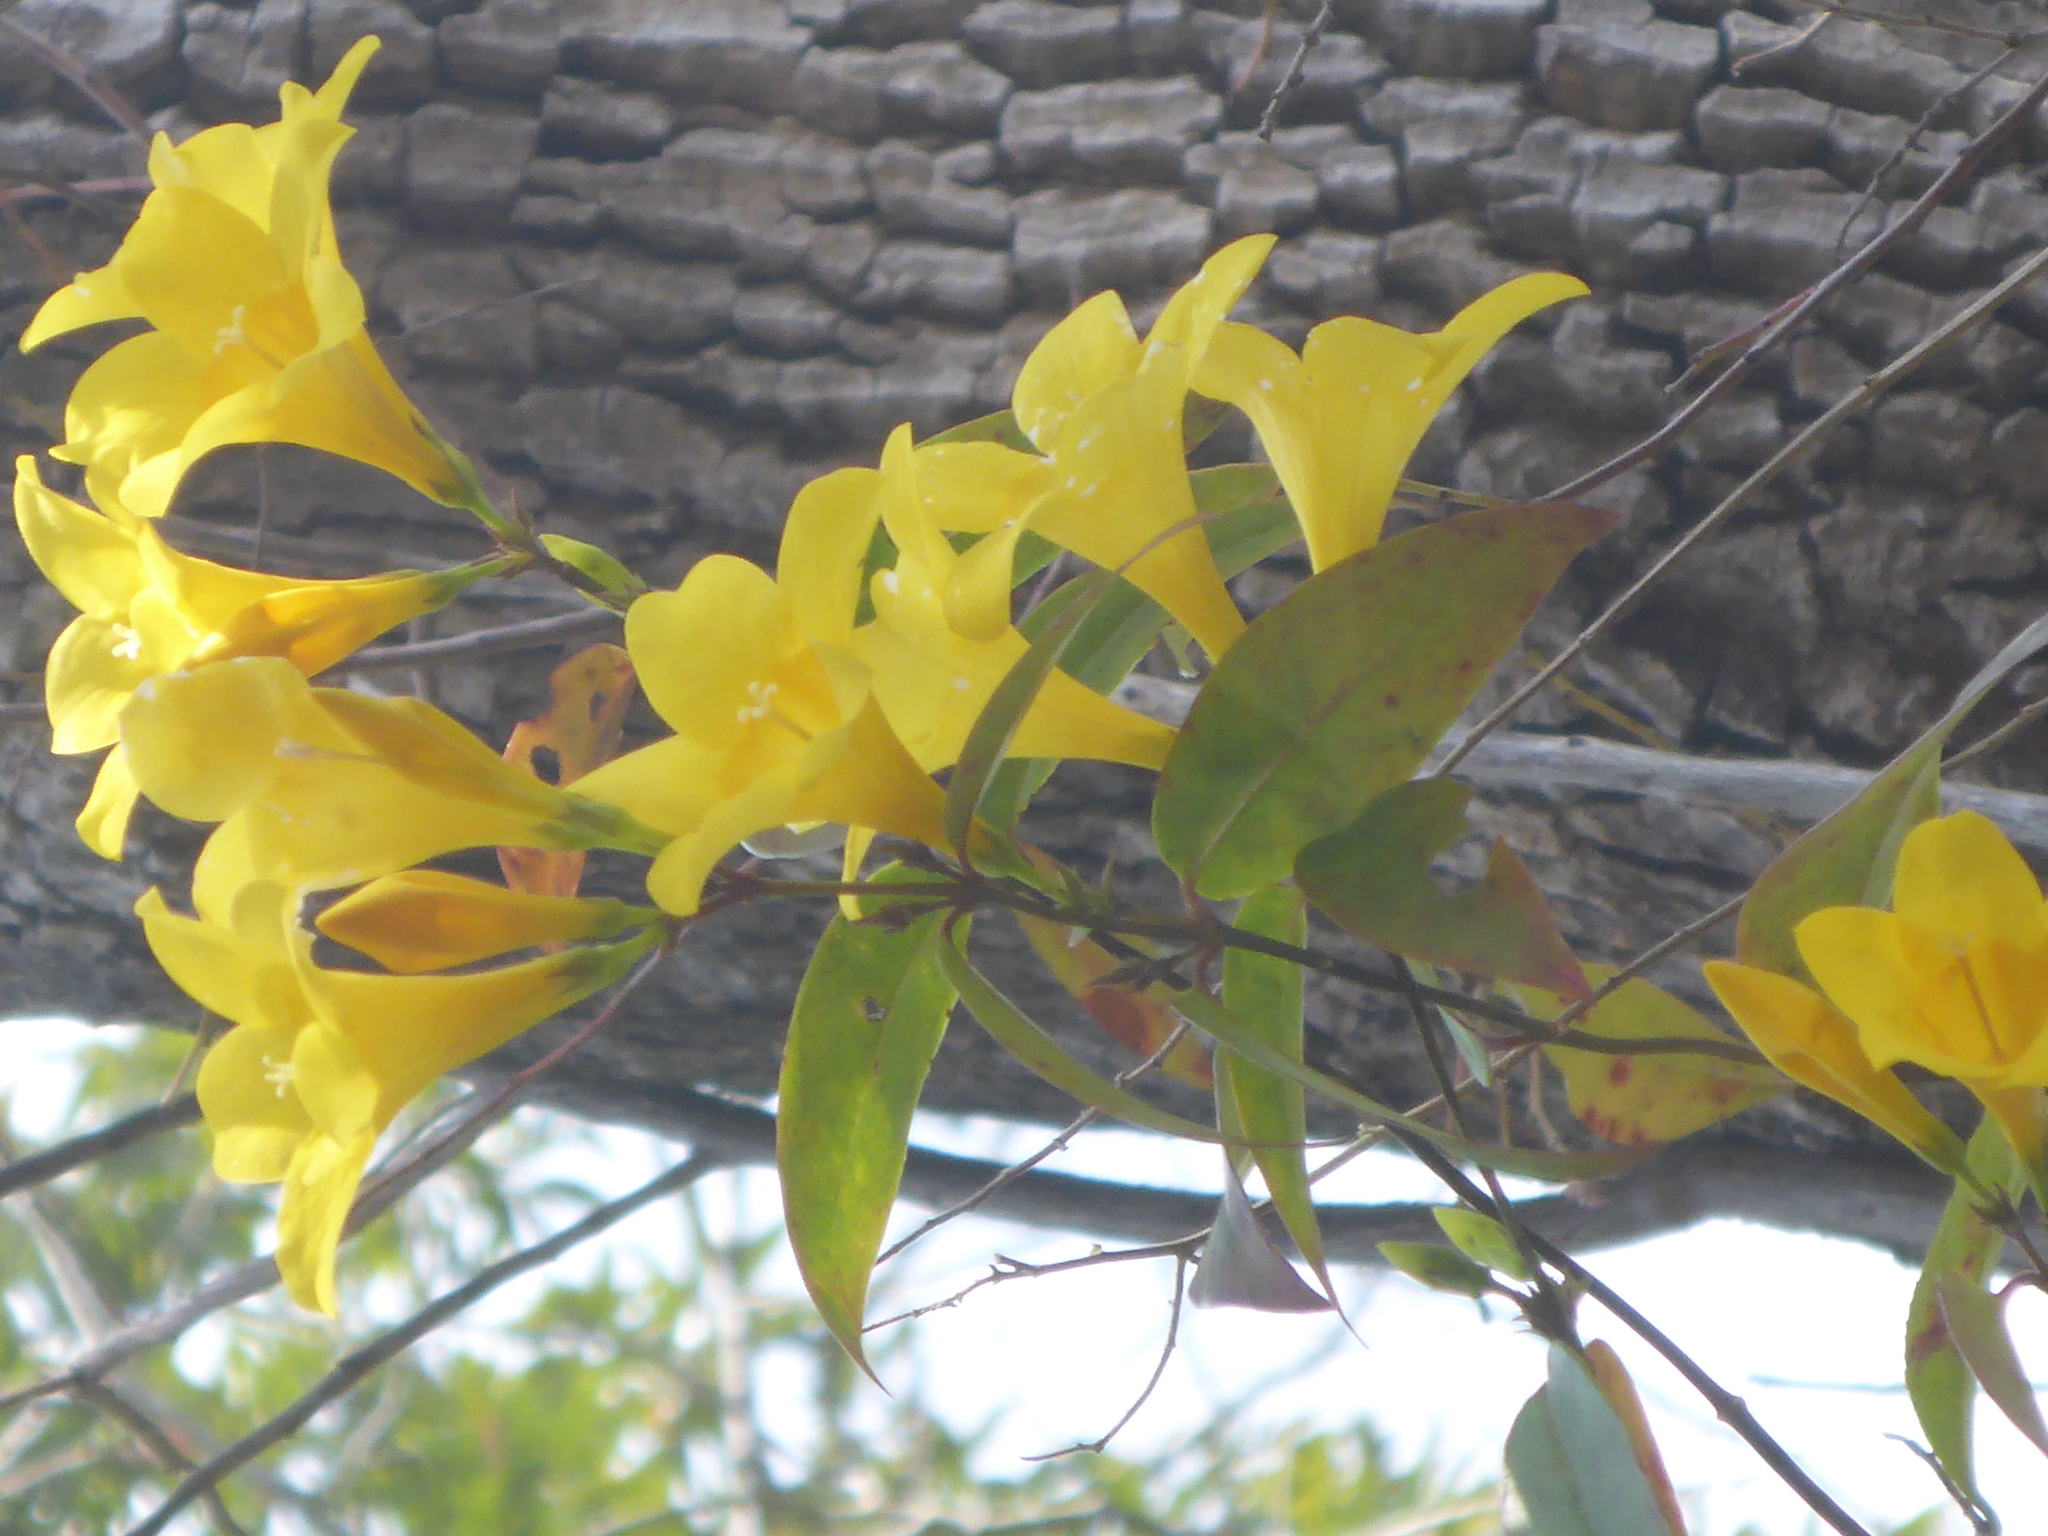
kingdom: Plantae
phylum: Tracheophyta
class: Magnoliopsida
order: Gentianales
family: Gelsemiaceae
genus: Gelsemium
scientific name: Gelsemium rankinii
